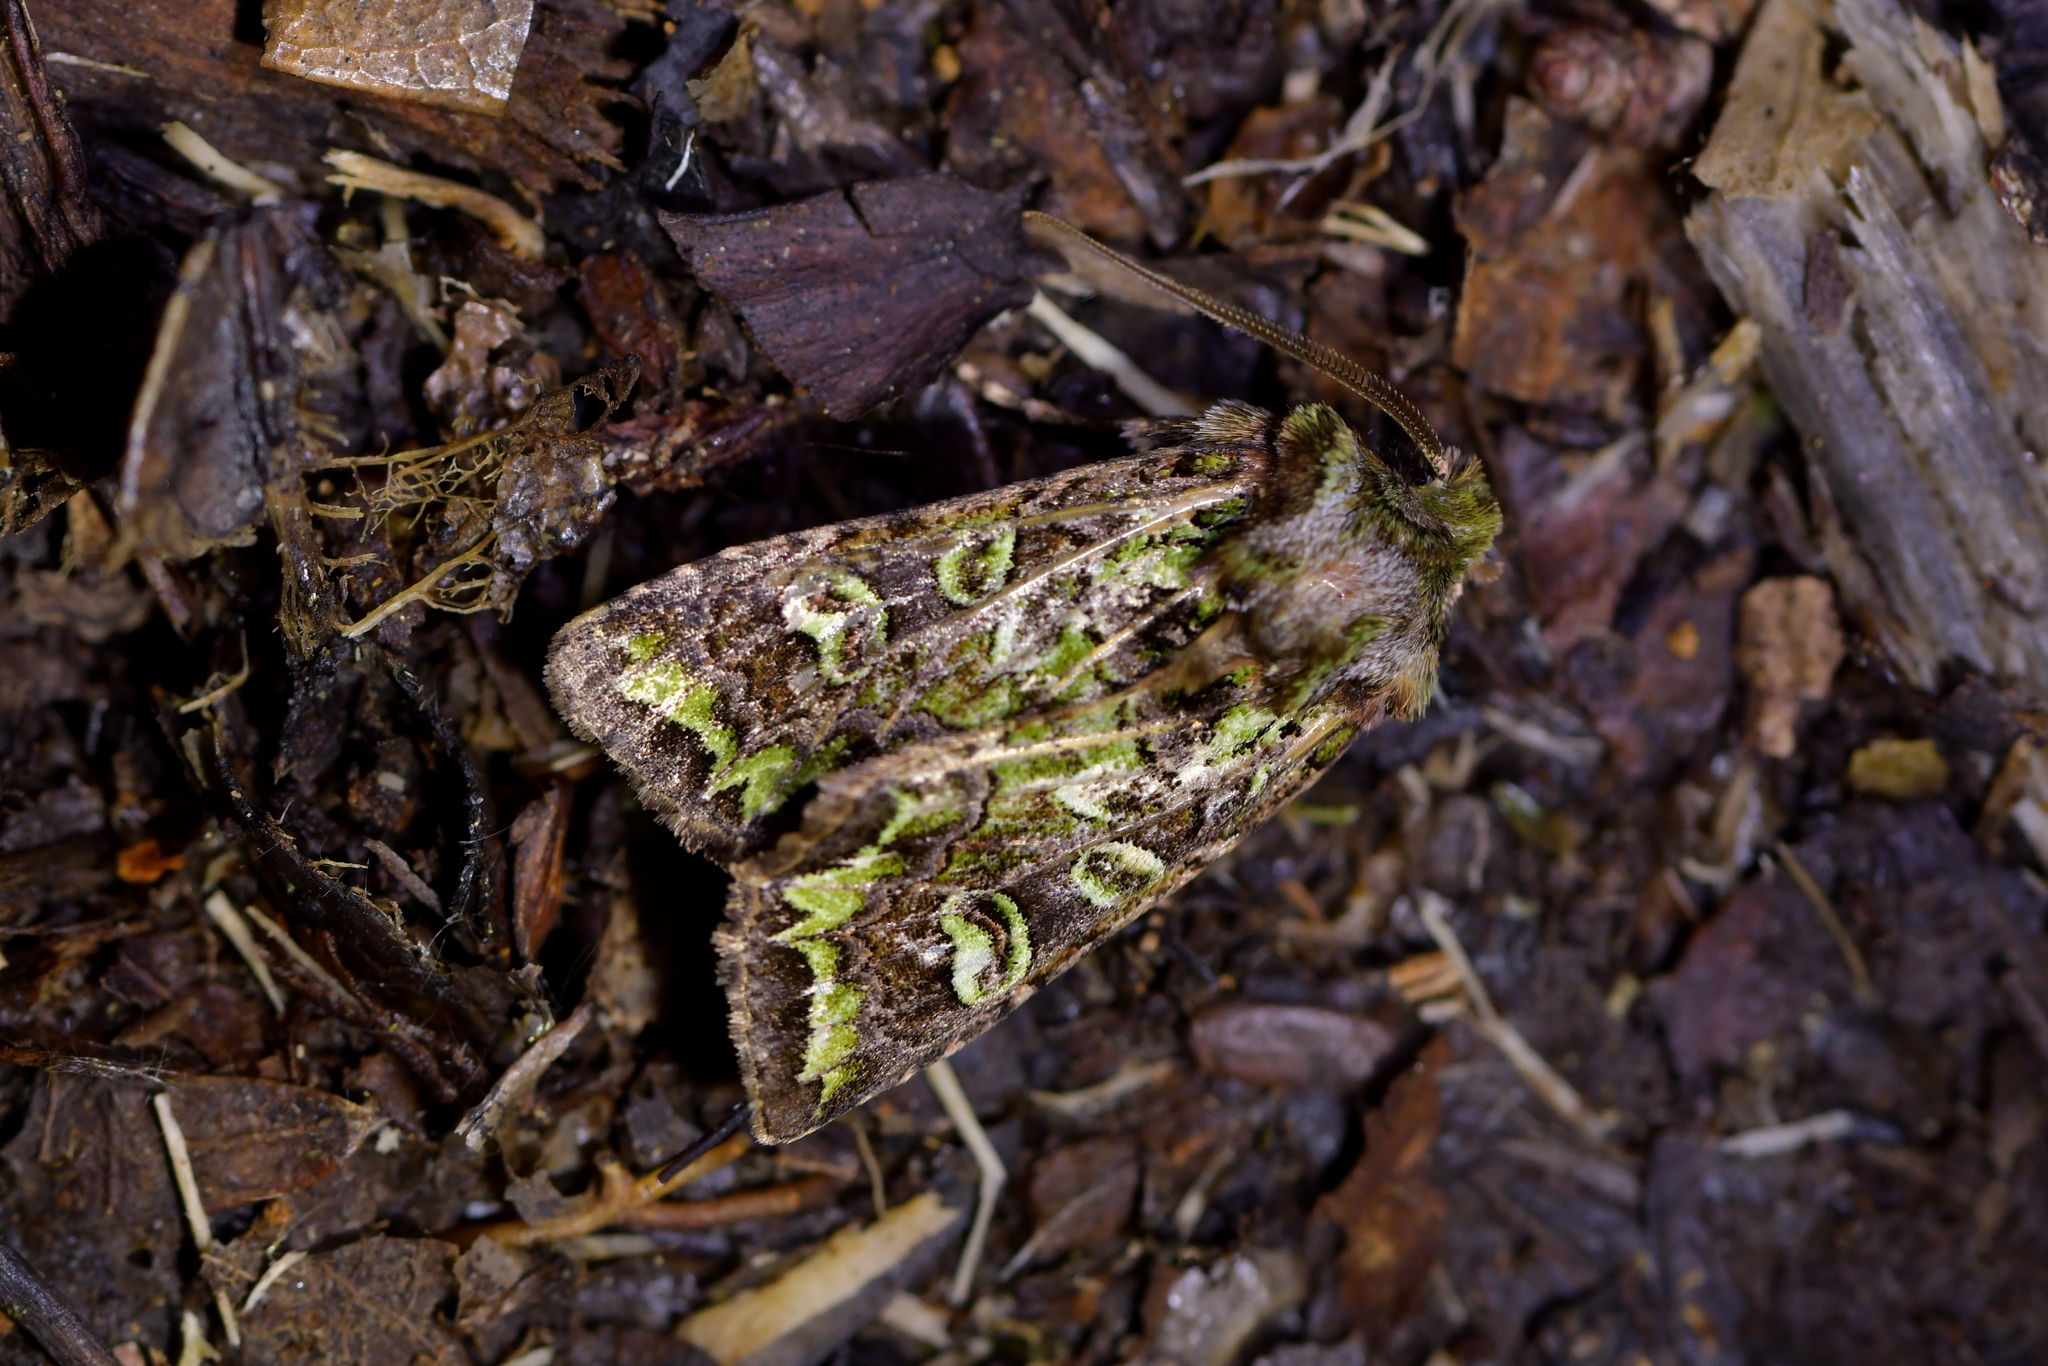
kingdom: Animalia
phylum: Arthropoda
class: Insecta
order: Lepidoptera
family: Noctuidae
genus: Ichneutica
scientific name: Ichneutica chlorodonta
